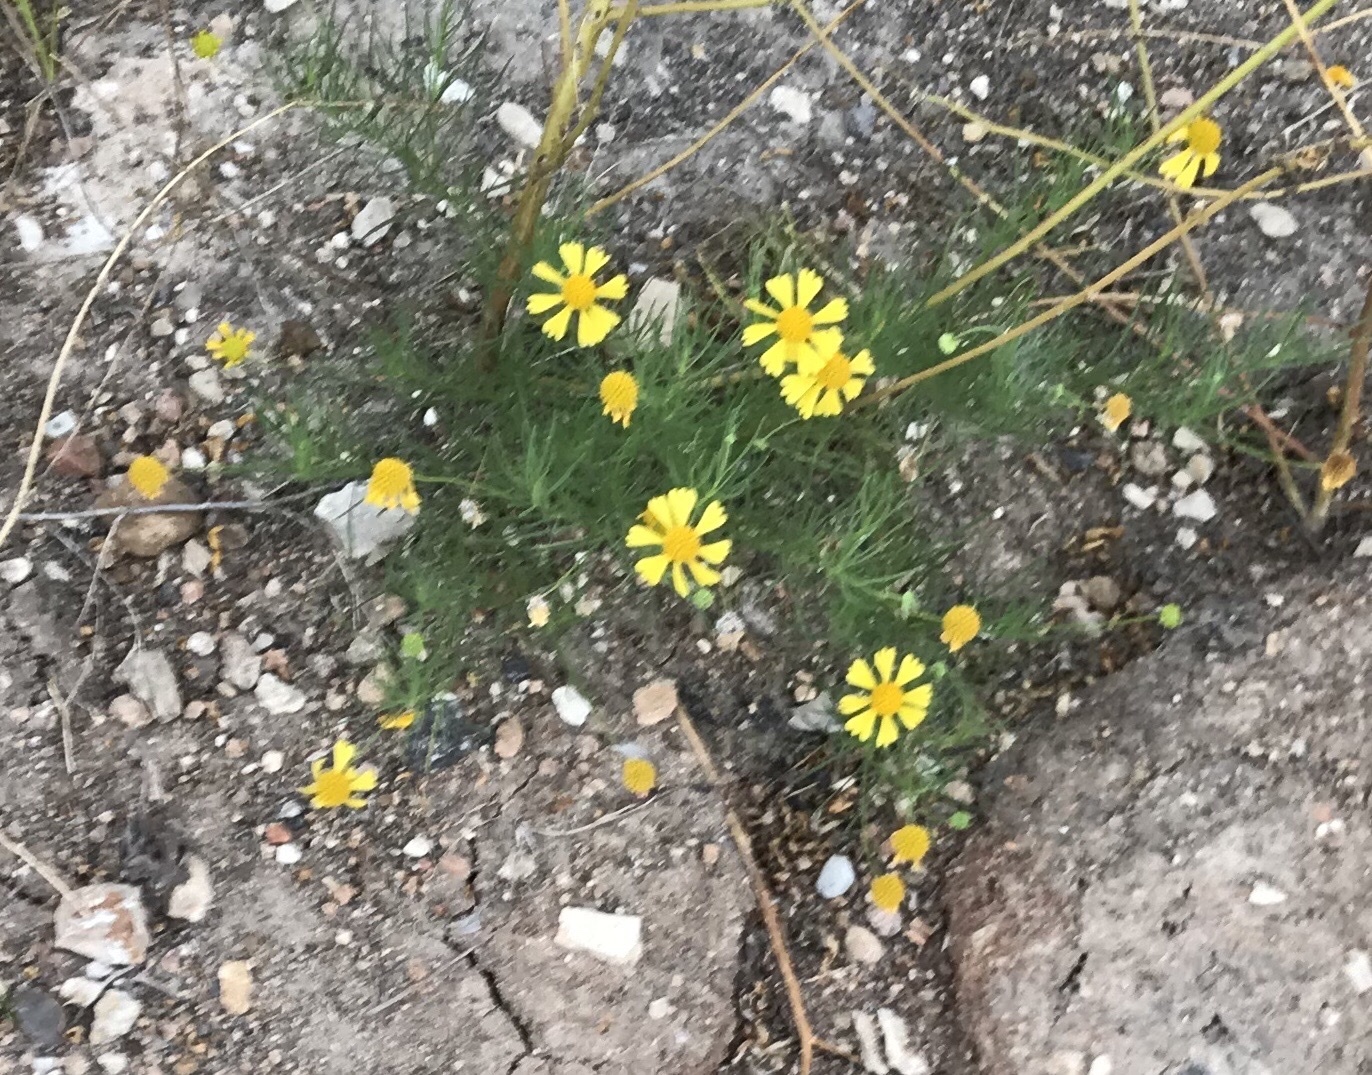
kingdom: Plantae
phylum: Tracheophyta
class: Magnoliopsida
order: Asterales
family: Asteraceae
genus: Helenium
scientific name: Helenium amarum
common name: Bitter sneezeweed
